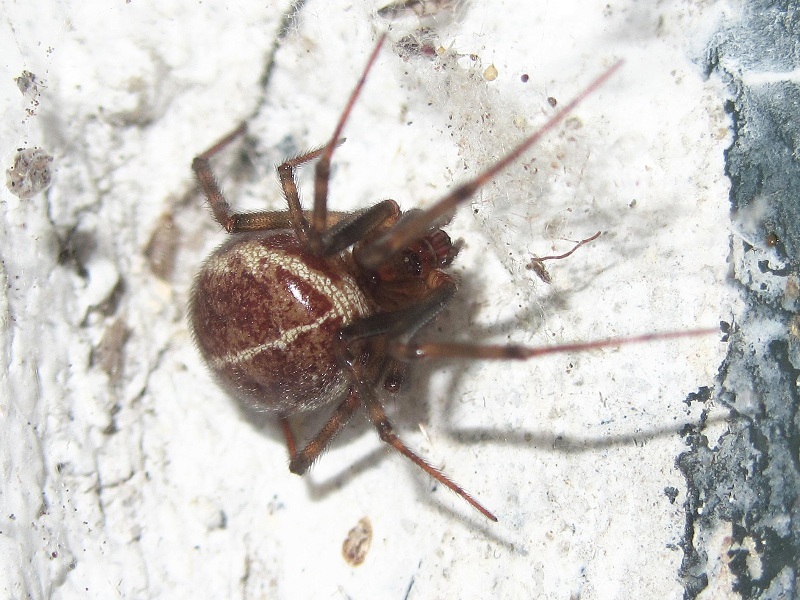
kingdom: Animalia
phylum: Arthropoda
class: Arachnida
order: Araneae
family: Theridiidae
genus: Steatoda
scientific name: Steatoda castanea
